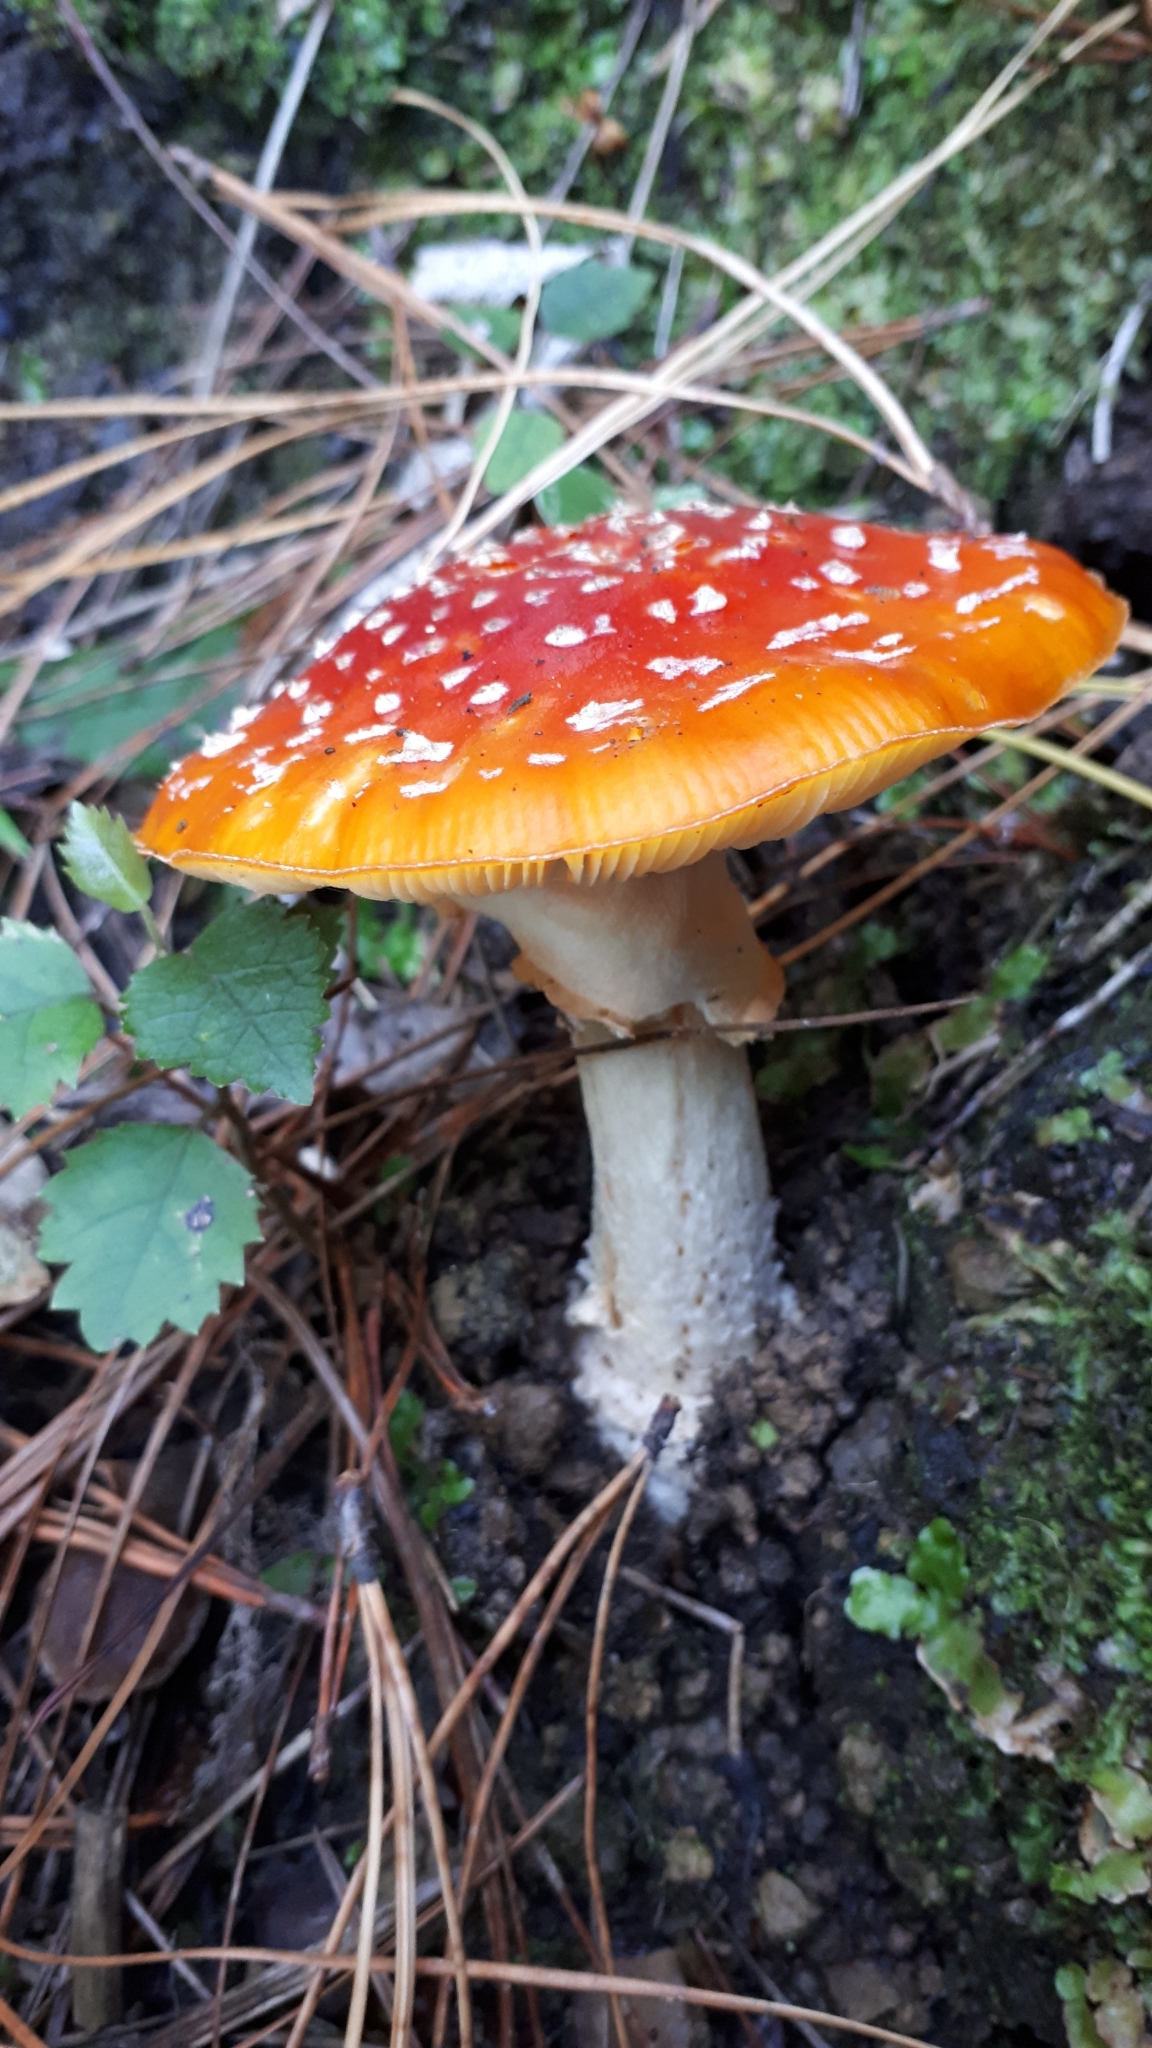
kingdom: Fungi
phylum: Basidiomycota
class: Agaricomycetes
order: Agaricales
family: Amanitaceae
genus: Amanita
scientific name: Amanita muscaria
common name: Fly agaric
